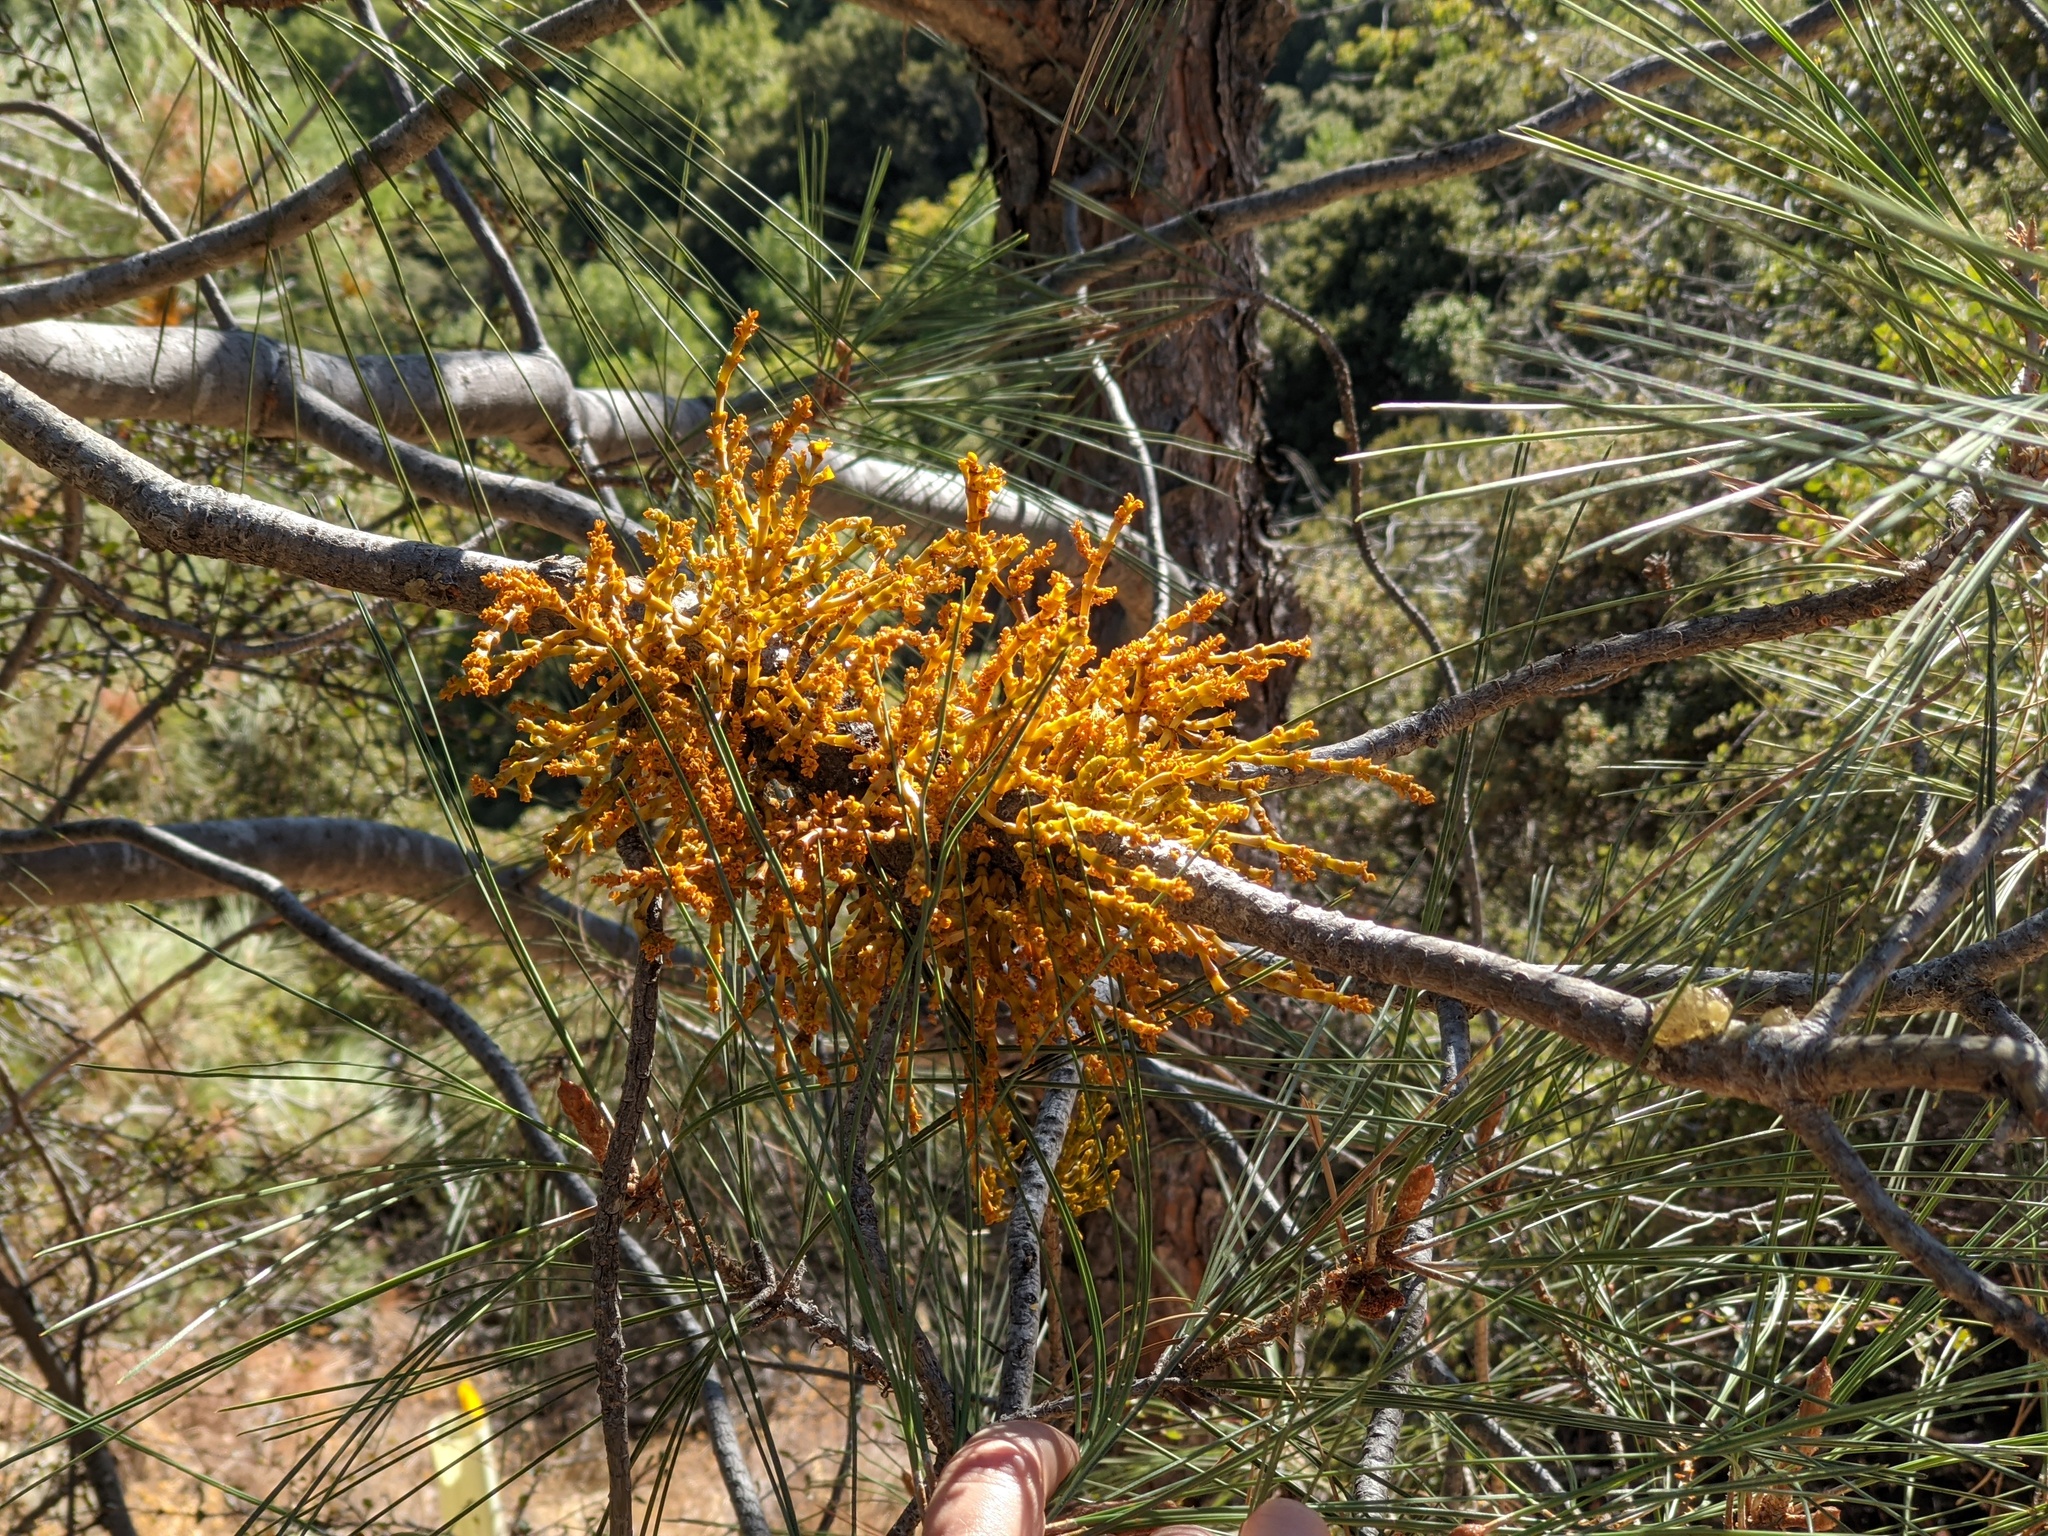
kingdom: Plantae
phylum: Tracheophyta
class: Magnoliopsida
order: Santalales
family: Viscaceae
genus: Arceuthobium
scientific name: Arceuthobium campylopodum
